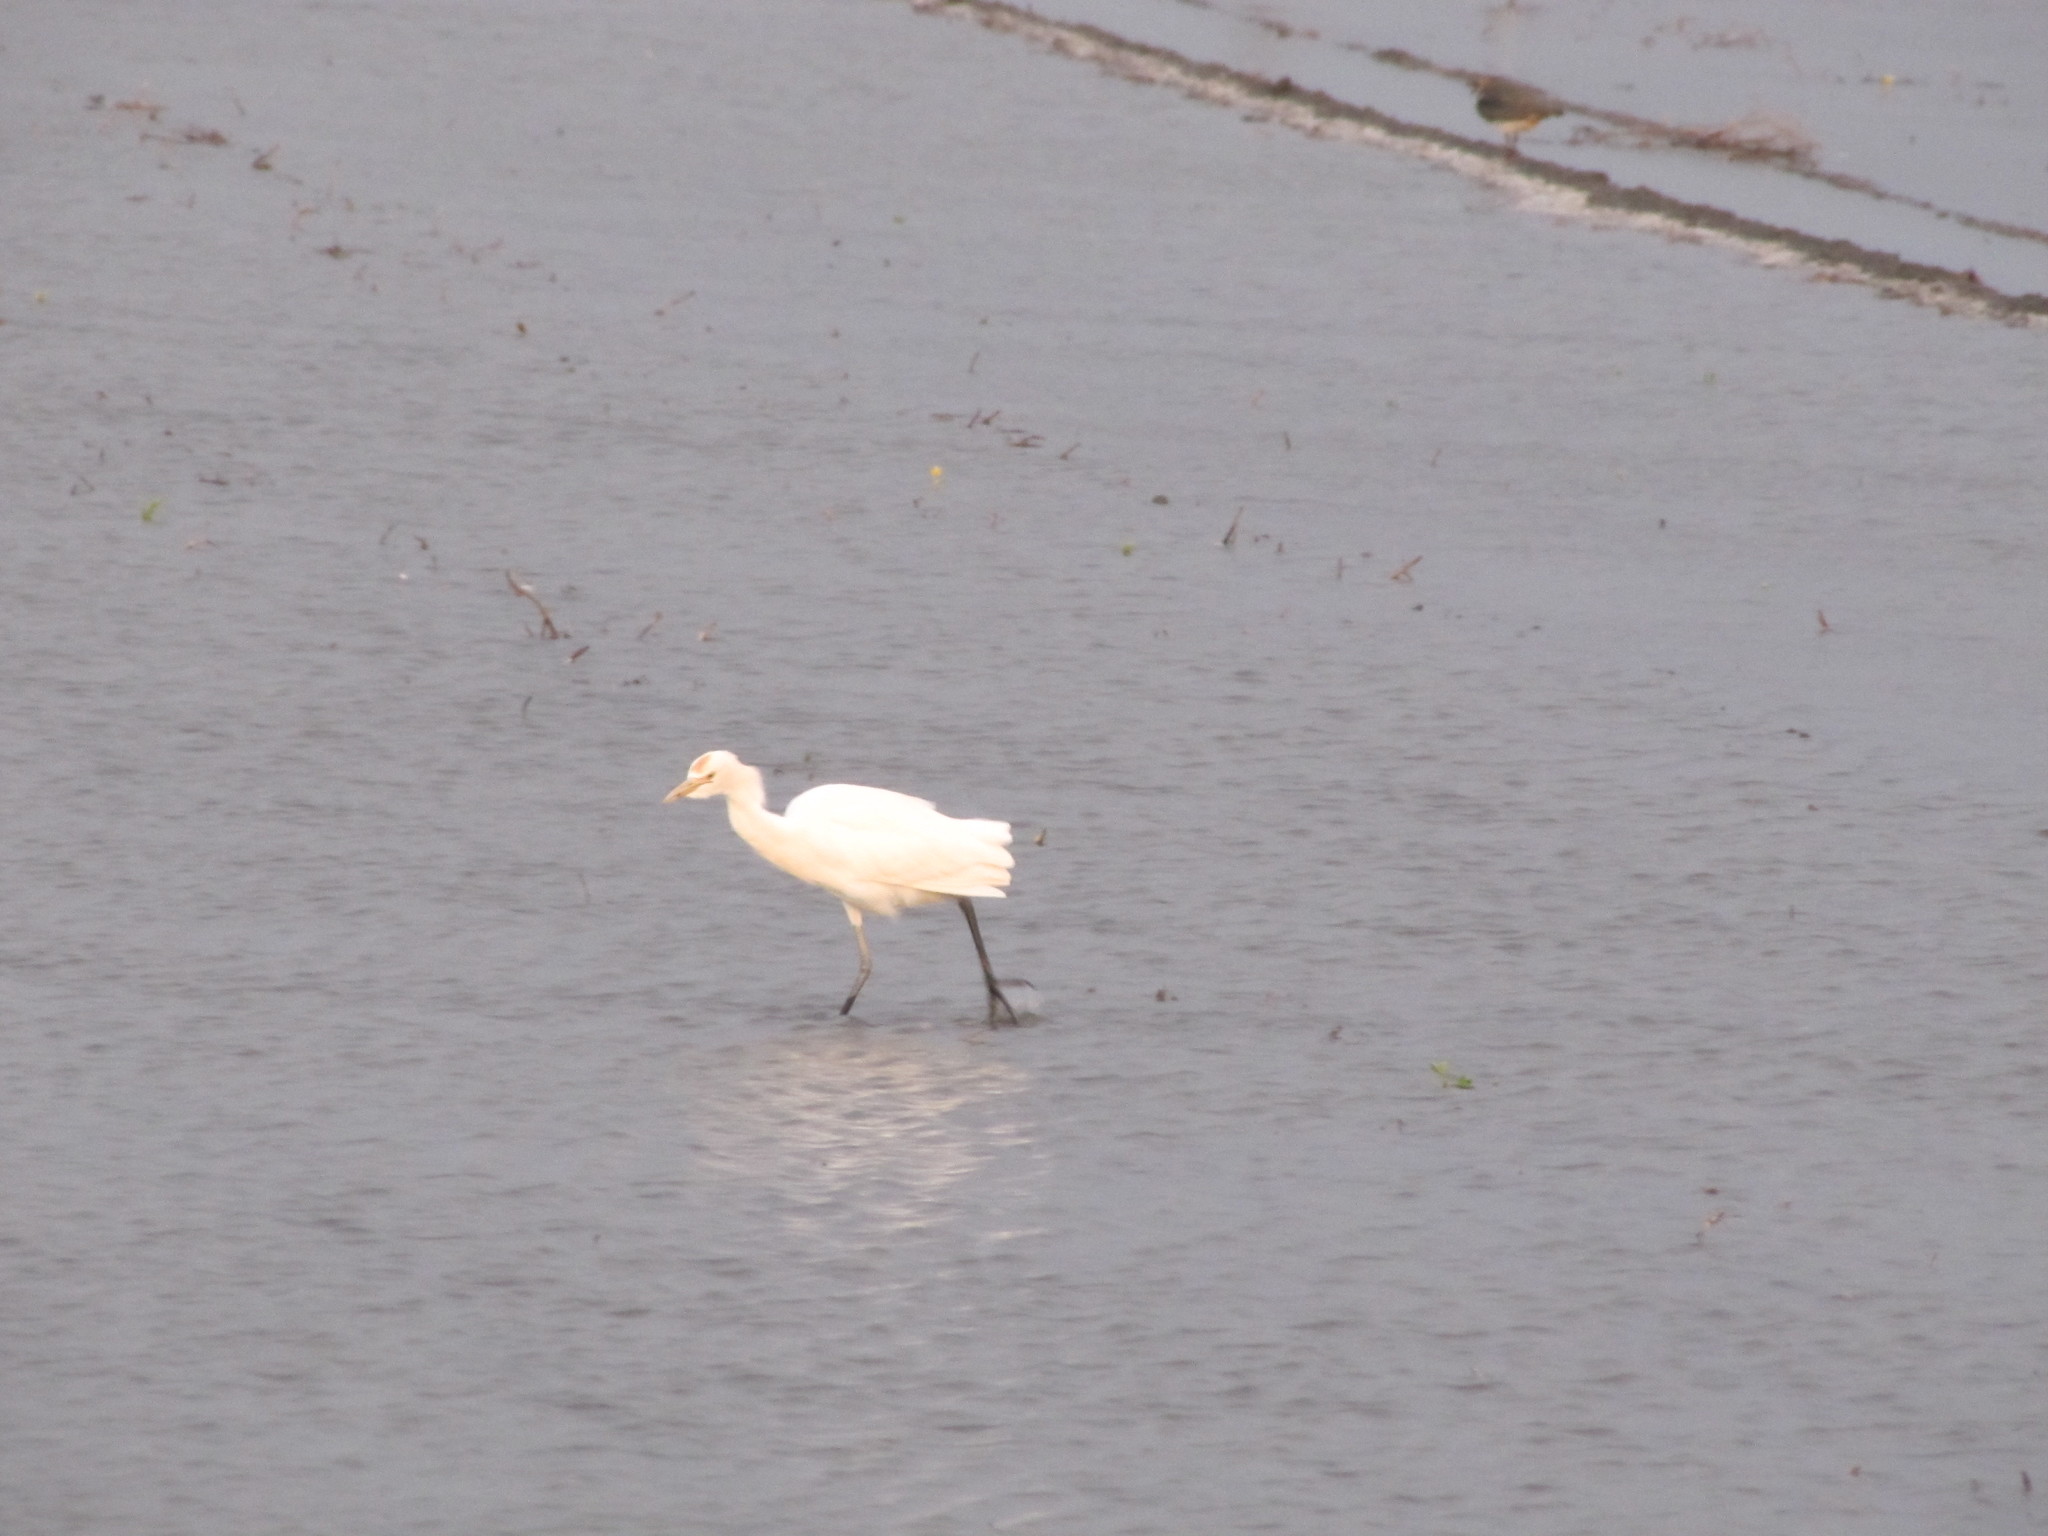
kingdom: Animalia
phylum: Chordata
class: Aves
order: Pelecaniformes
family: Ardeidae
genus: Bubulcus
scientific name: Bubulcus coromandus
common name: Eastern cattle egret
